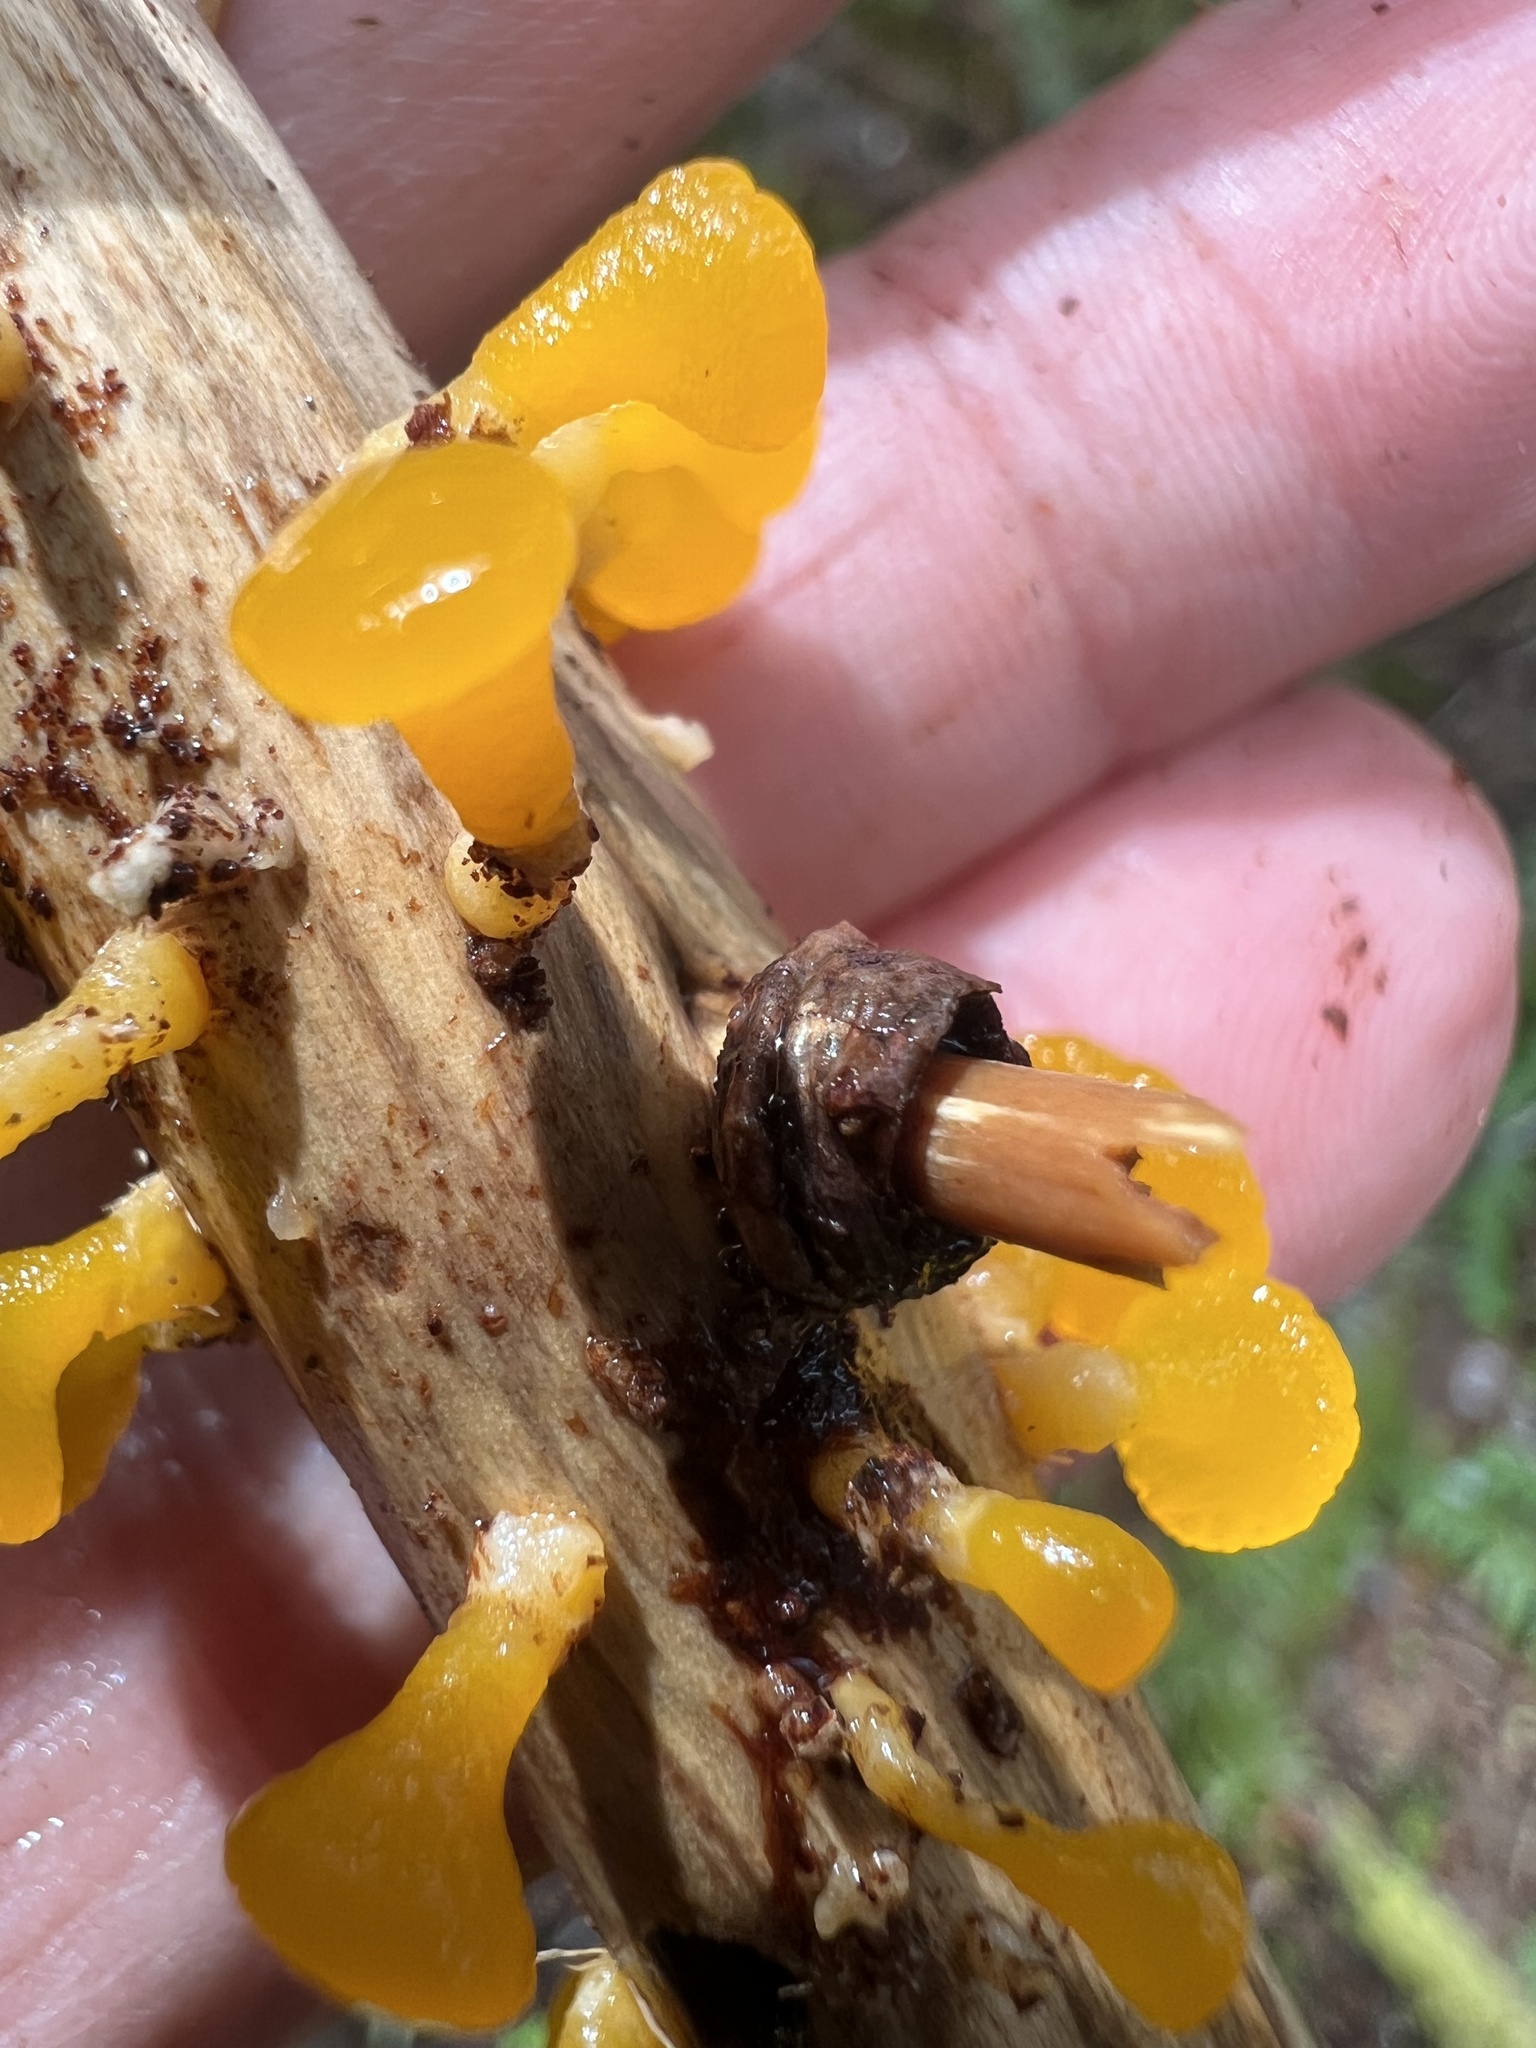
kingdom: Fungi
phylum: Basidiomycota
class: Dacrymycetes
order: Dacrymycetales
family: Dacrymycetaceae
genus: Guepiniopsis
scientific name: Guepiniopsis alpina
